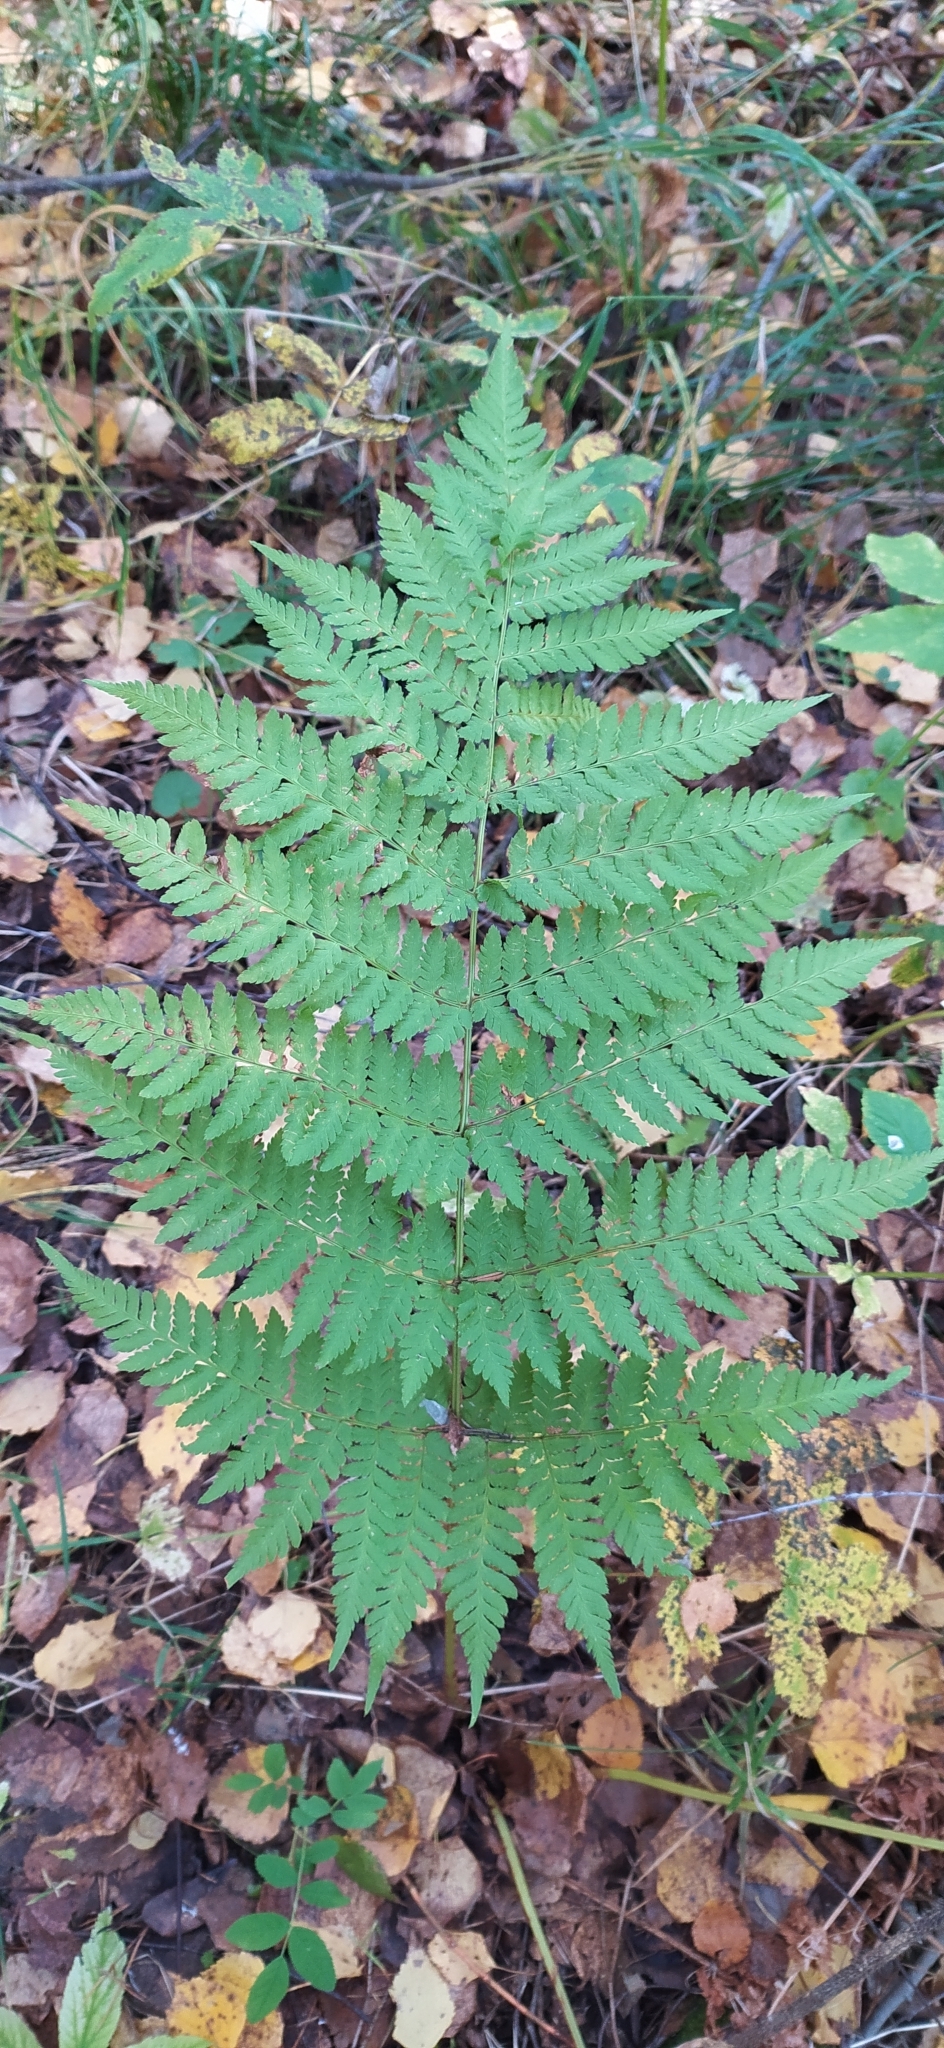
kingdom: Plantae
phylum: Tracheophyta
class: Polypodiopsida
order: Polypodiales
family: Dryopteridaceae
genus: Dryopteris
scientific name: Dryopteris expansa
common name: Northern buckler fern
